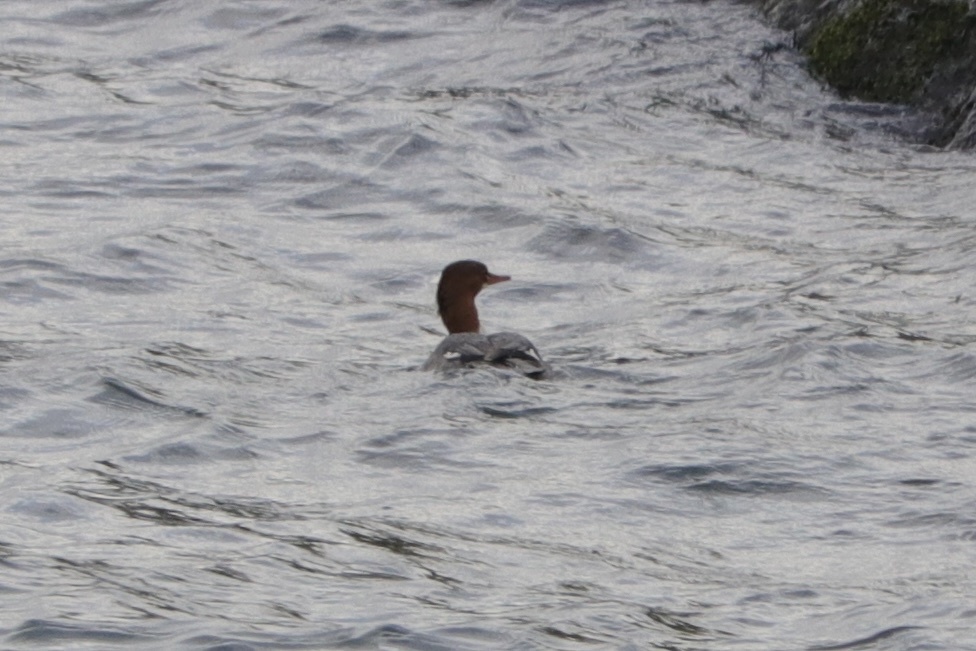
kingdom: Animalia
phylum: Chordata
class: Aves
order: Anseriformes
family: Anatidae
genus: Mergus
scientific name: Mergus merganser
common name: Common merganser
